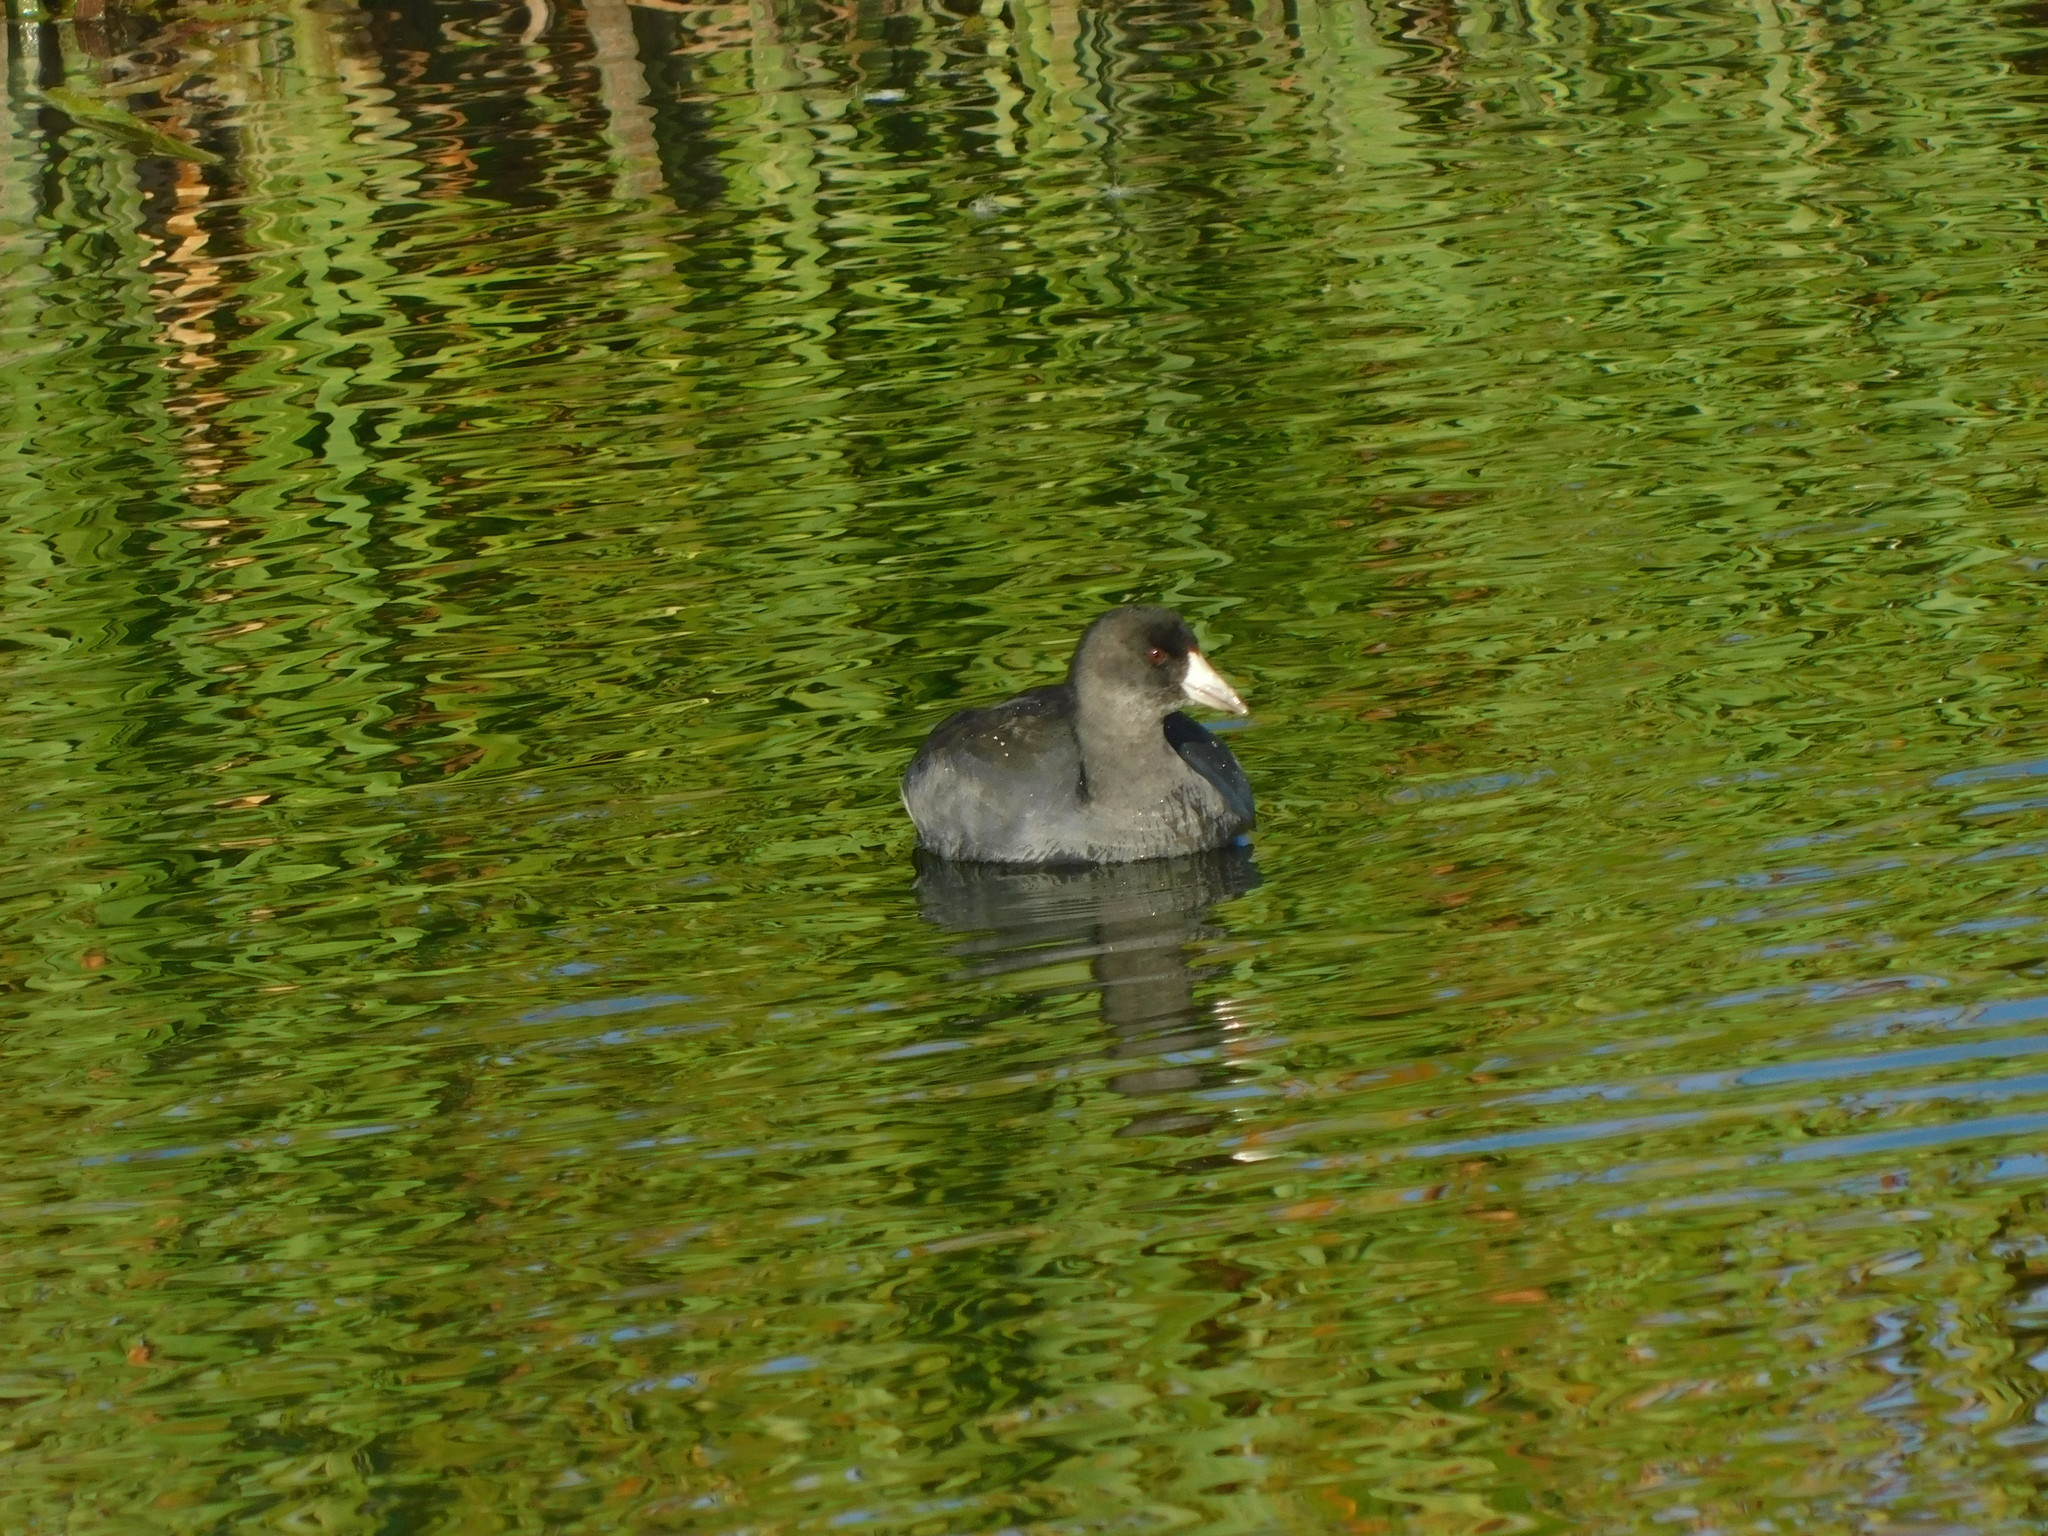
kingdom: Animalia
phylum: Chordata
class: Aves
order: Gruiformes
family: Rallidae
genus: Fulica
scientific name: Fulica americana
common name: American coot
